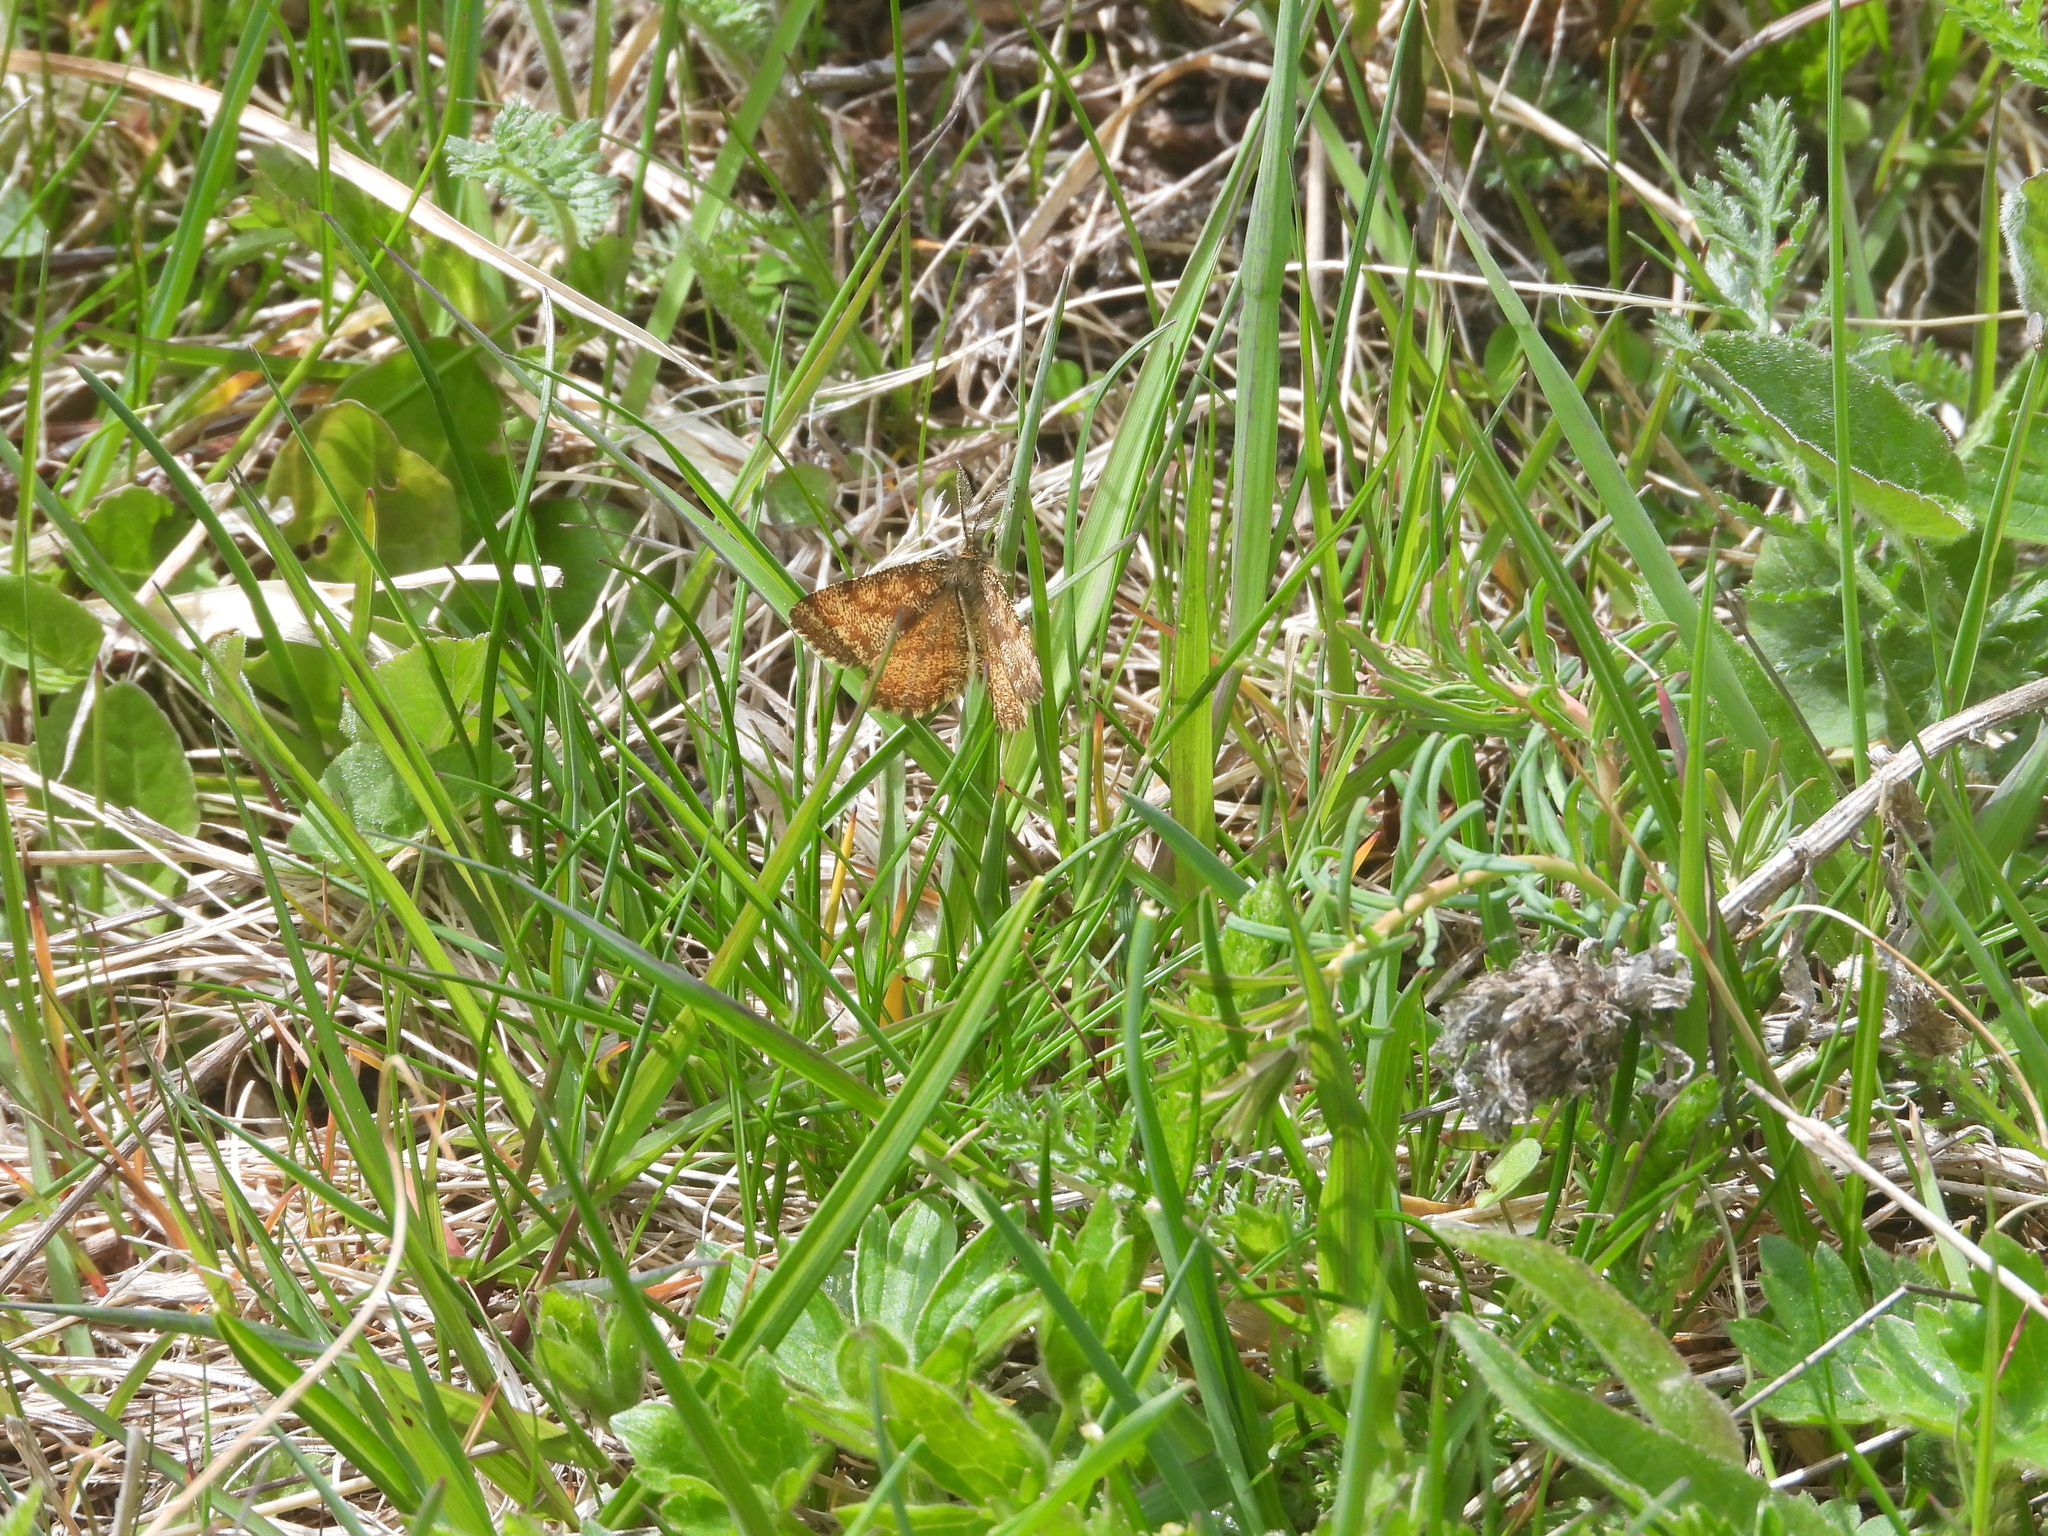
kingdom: Animalia
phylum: Arthropoda
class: Insecta
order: Lepidoptera
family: Geometridae
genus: Ematurga
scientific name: Ematurga atomaria
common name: Common heath
